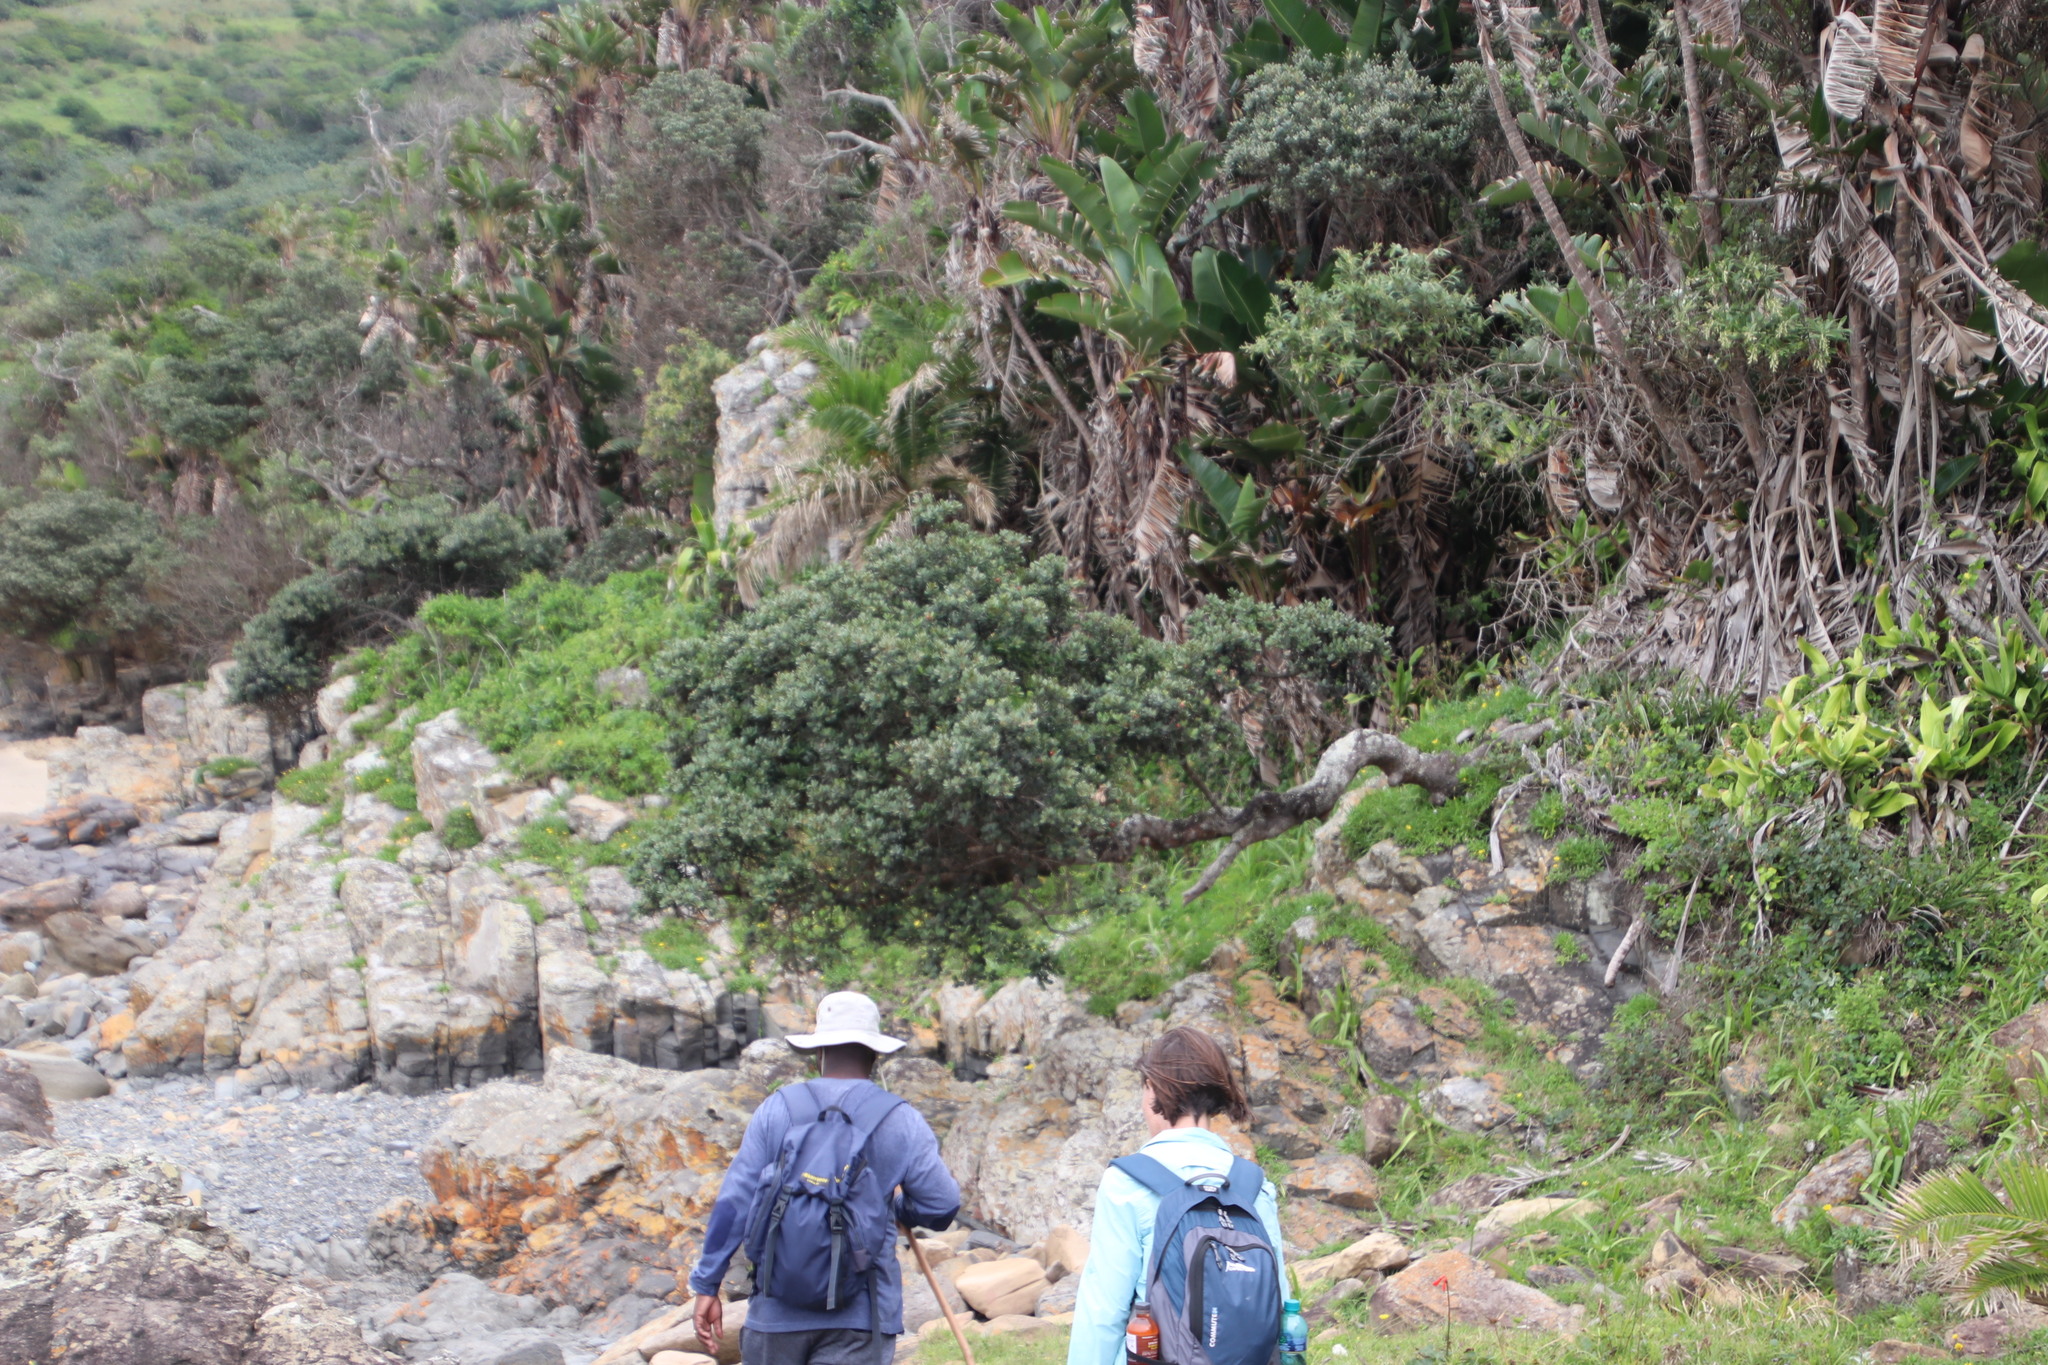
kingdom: Plantae
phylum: Tracheophyta
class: Magnoliopsida
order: Ericales
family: Sapotaceae
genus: Mimusops
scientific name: Mimusops caffra
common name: Coastal red milkwood
